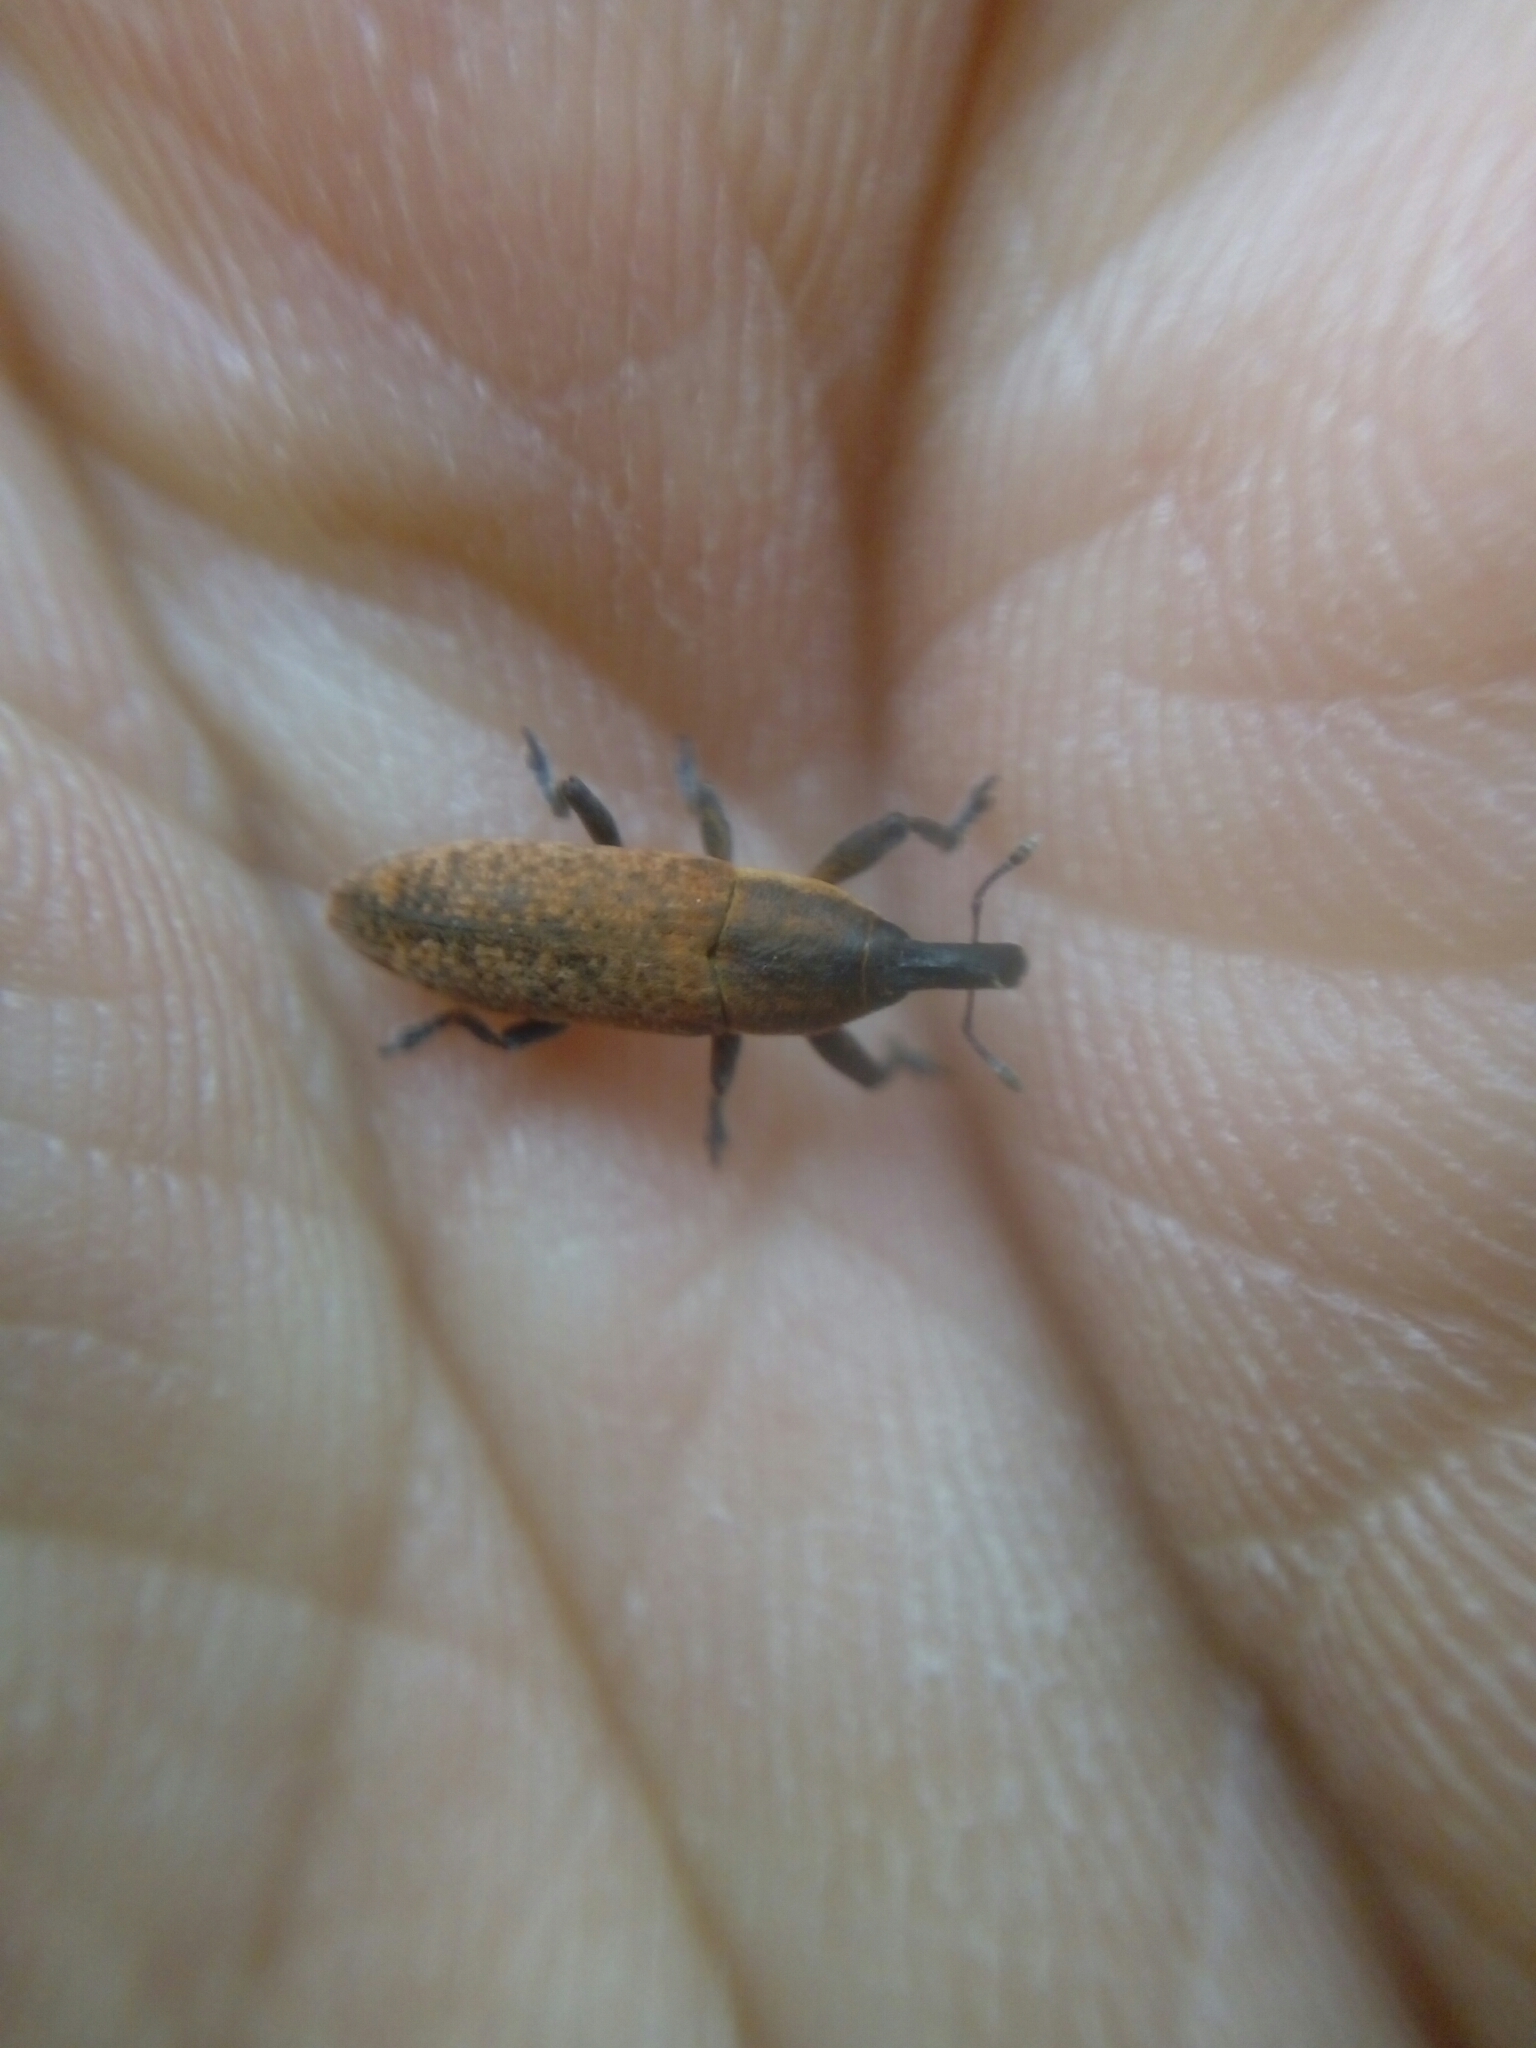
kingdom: Animalia
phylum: Arthropoda
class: Insecta
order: Coleoptera
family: Curculionidae
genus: Lixus
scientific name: Lixus brevipes
